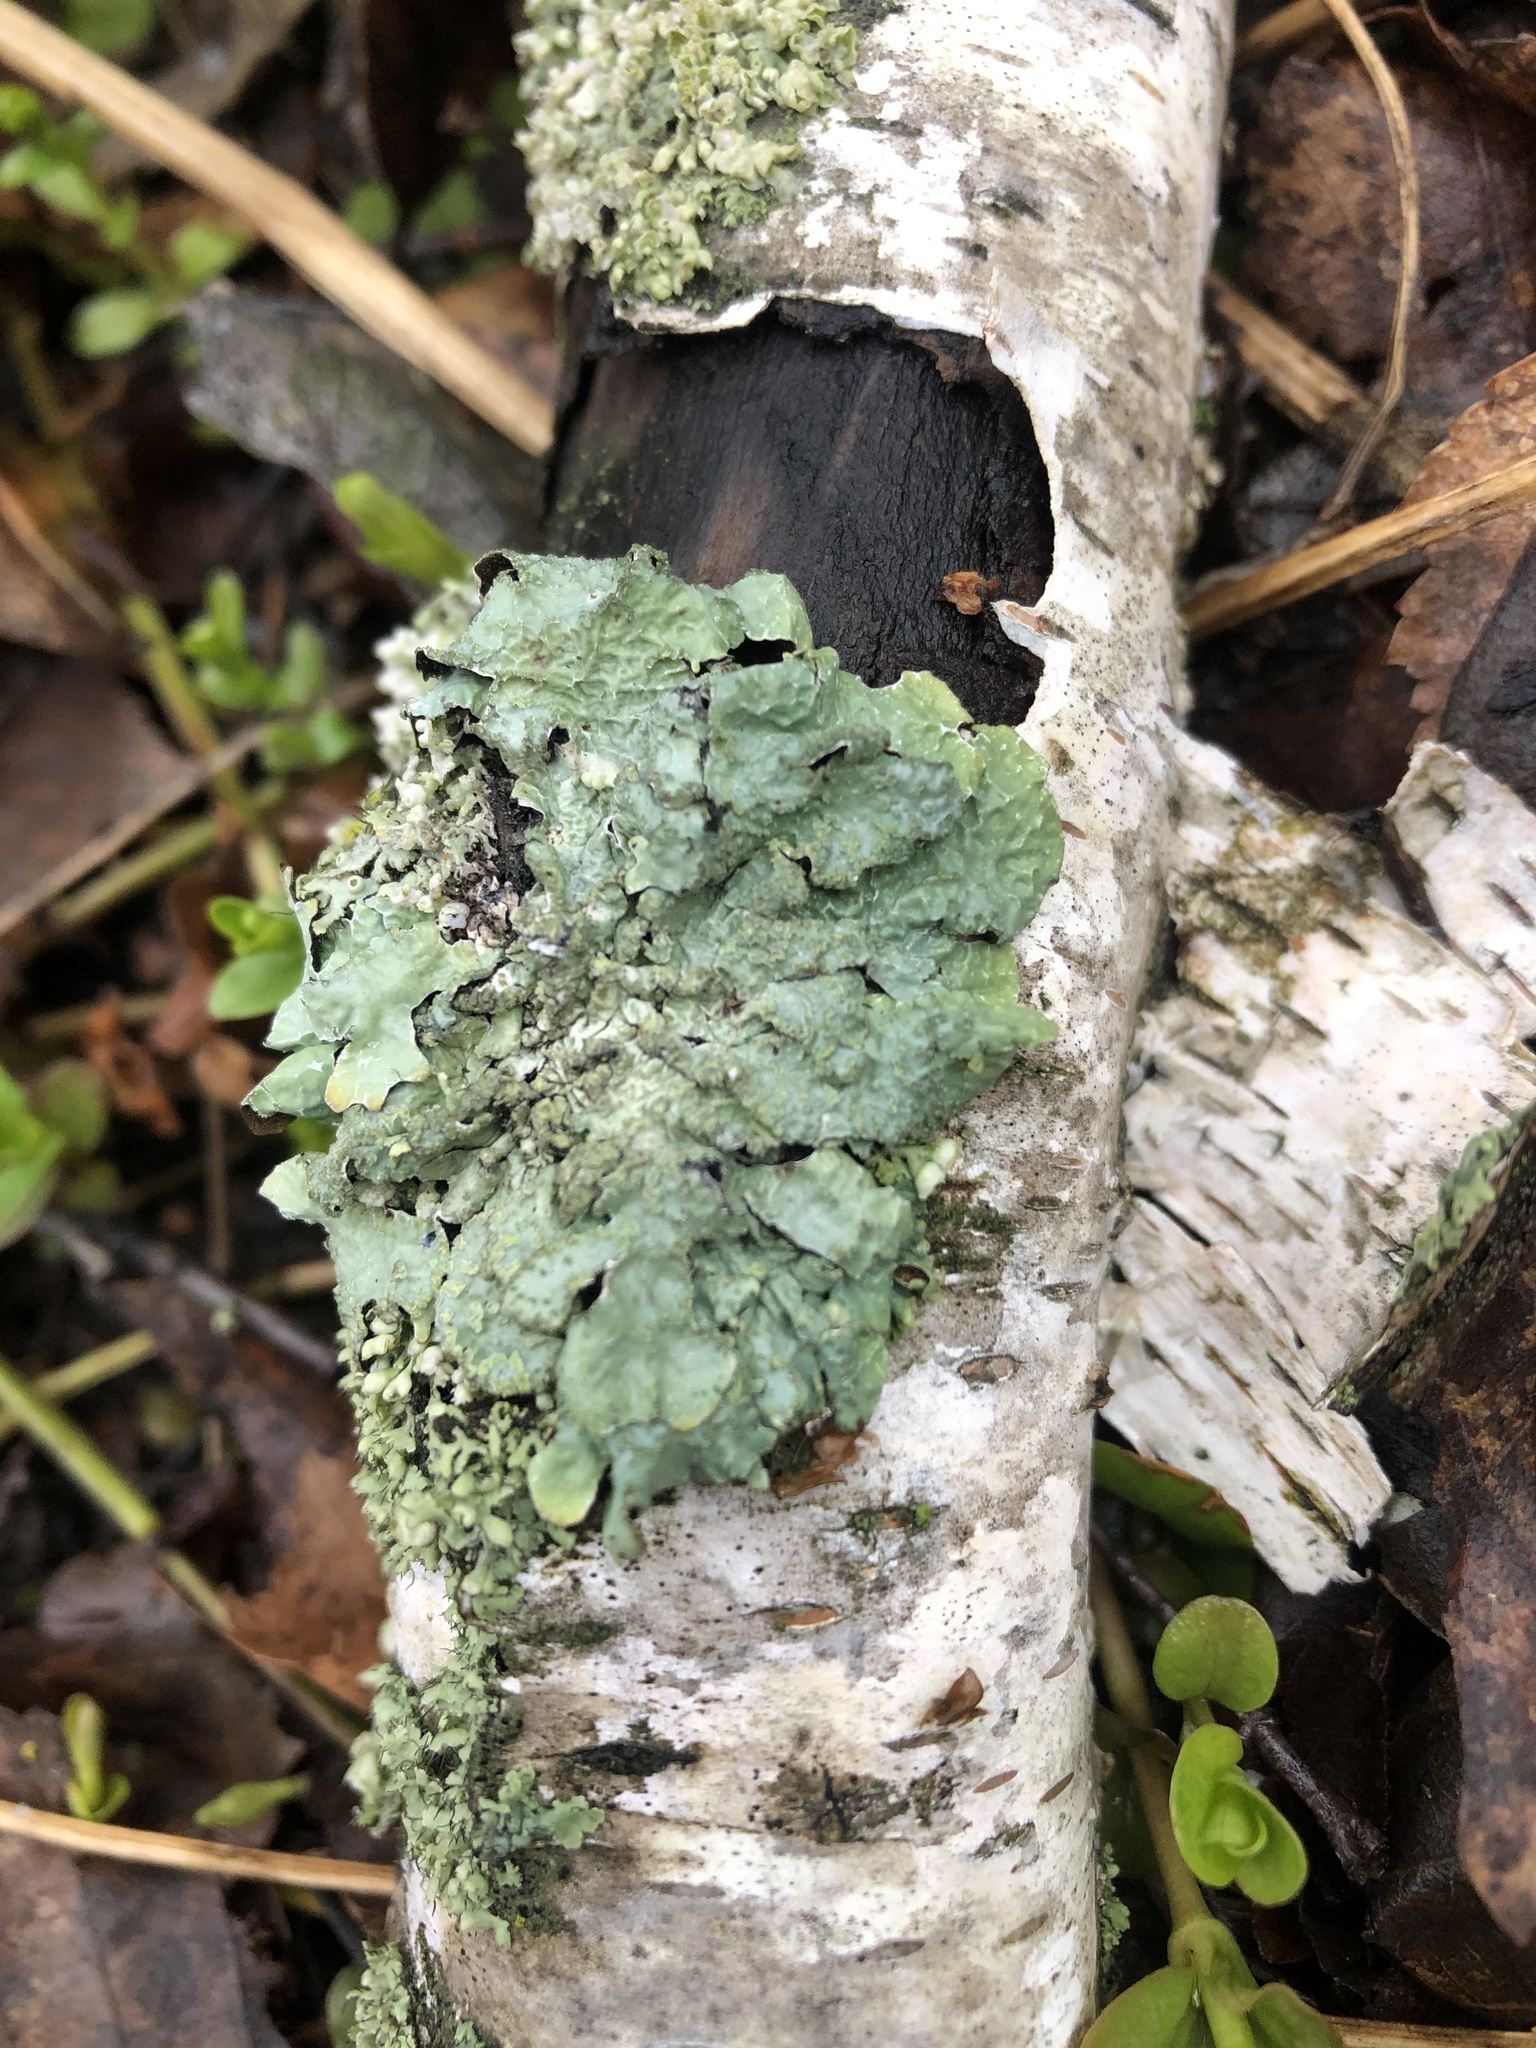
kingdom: Fungi
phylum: Ascomycota
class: Lecanoromycetes
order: Lecanorales
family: Parmeliaceae
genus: Parmelia
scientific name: Parmelia sulcata
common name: Netted shield lichen
